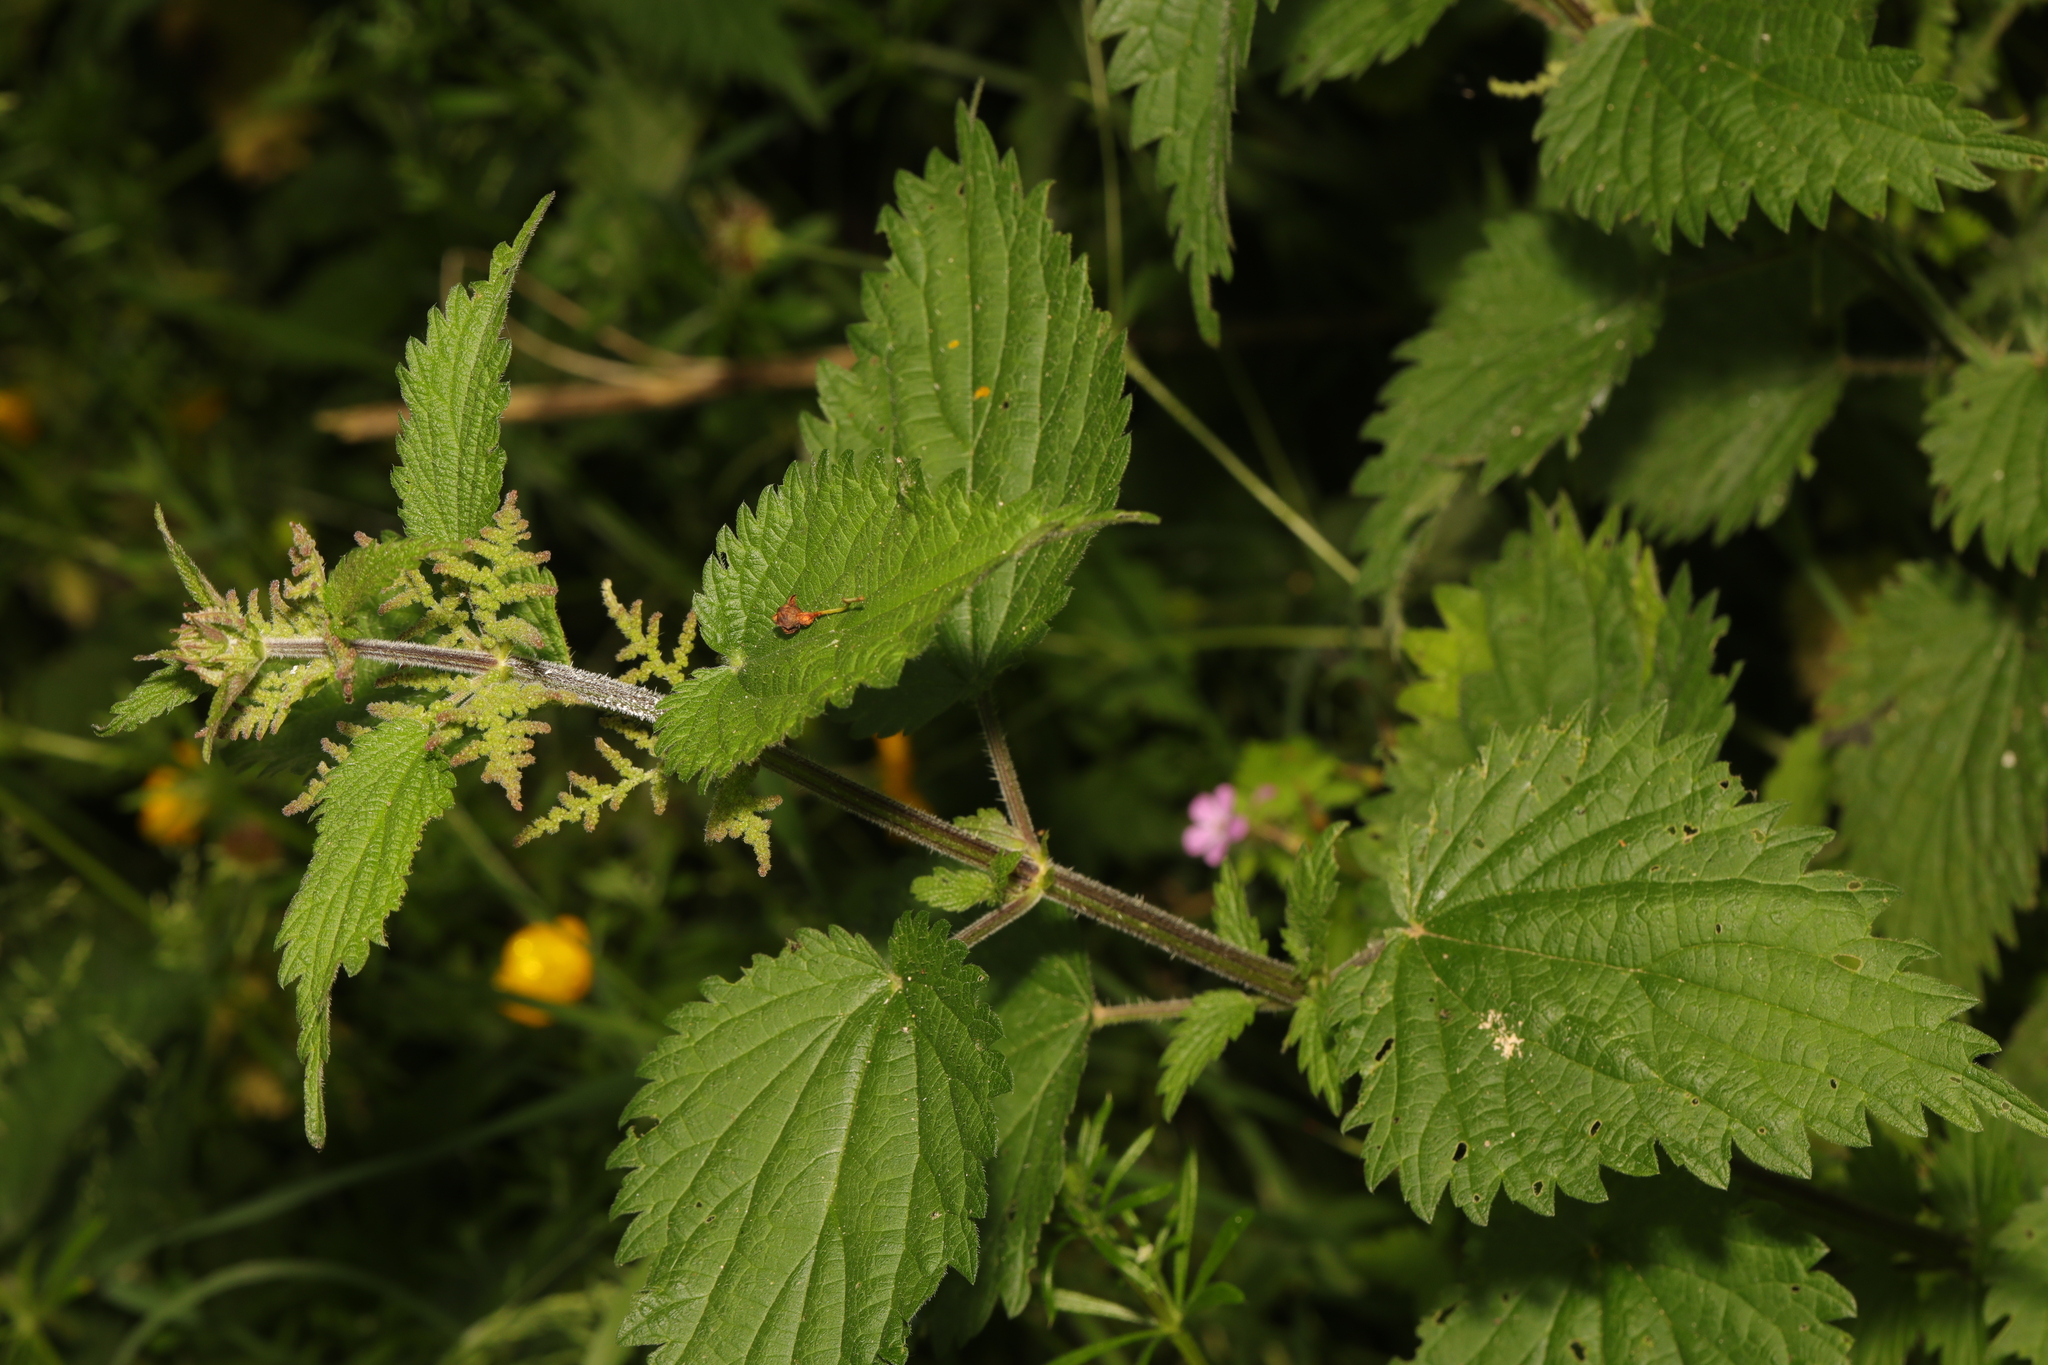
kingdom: Plantae
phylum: Tracheophyta
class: Magnoliopsida
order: Rosales
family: Urticaceae
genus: Urtica
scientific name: Urtica dioica
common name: Common nettle
